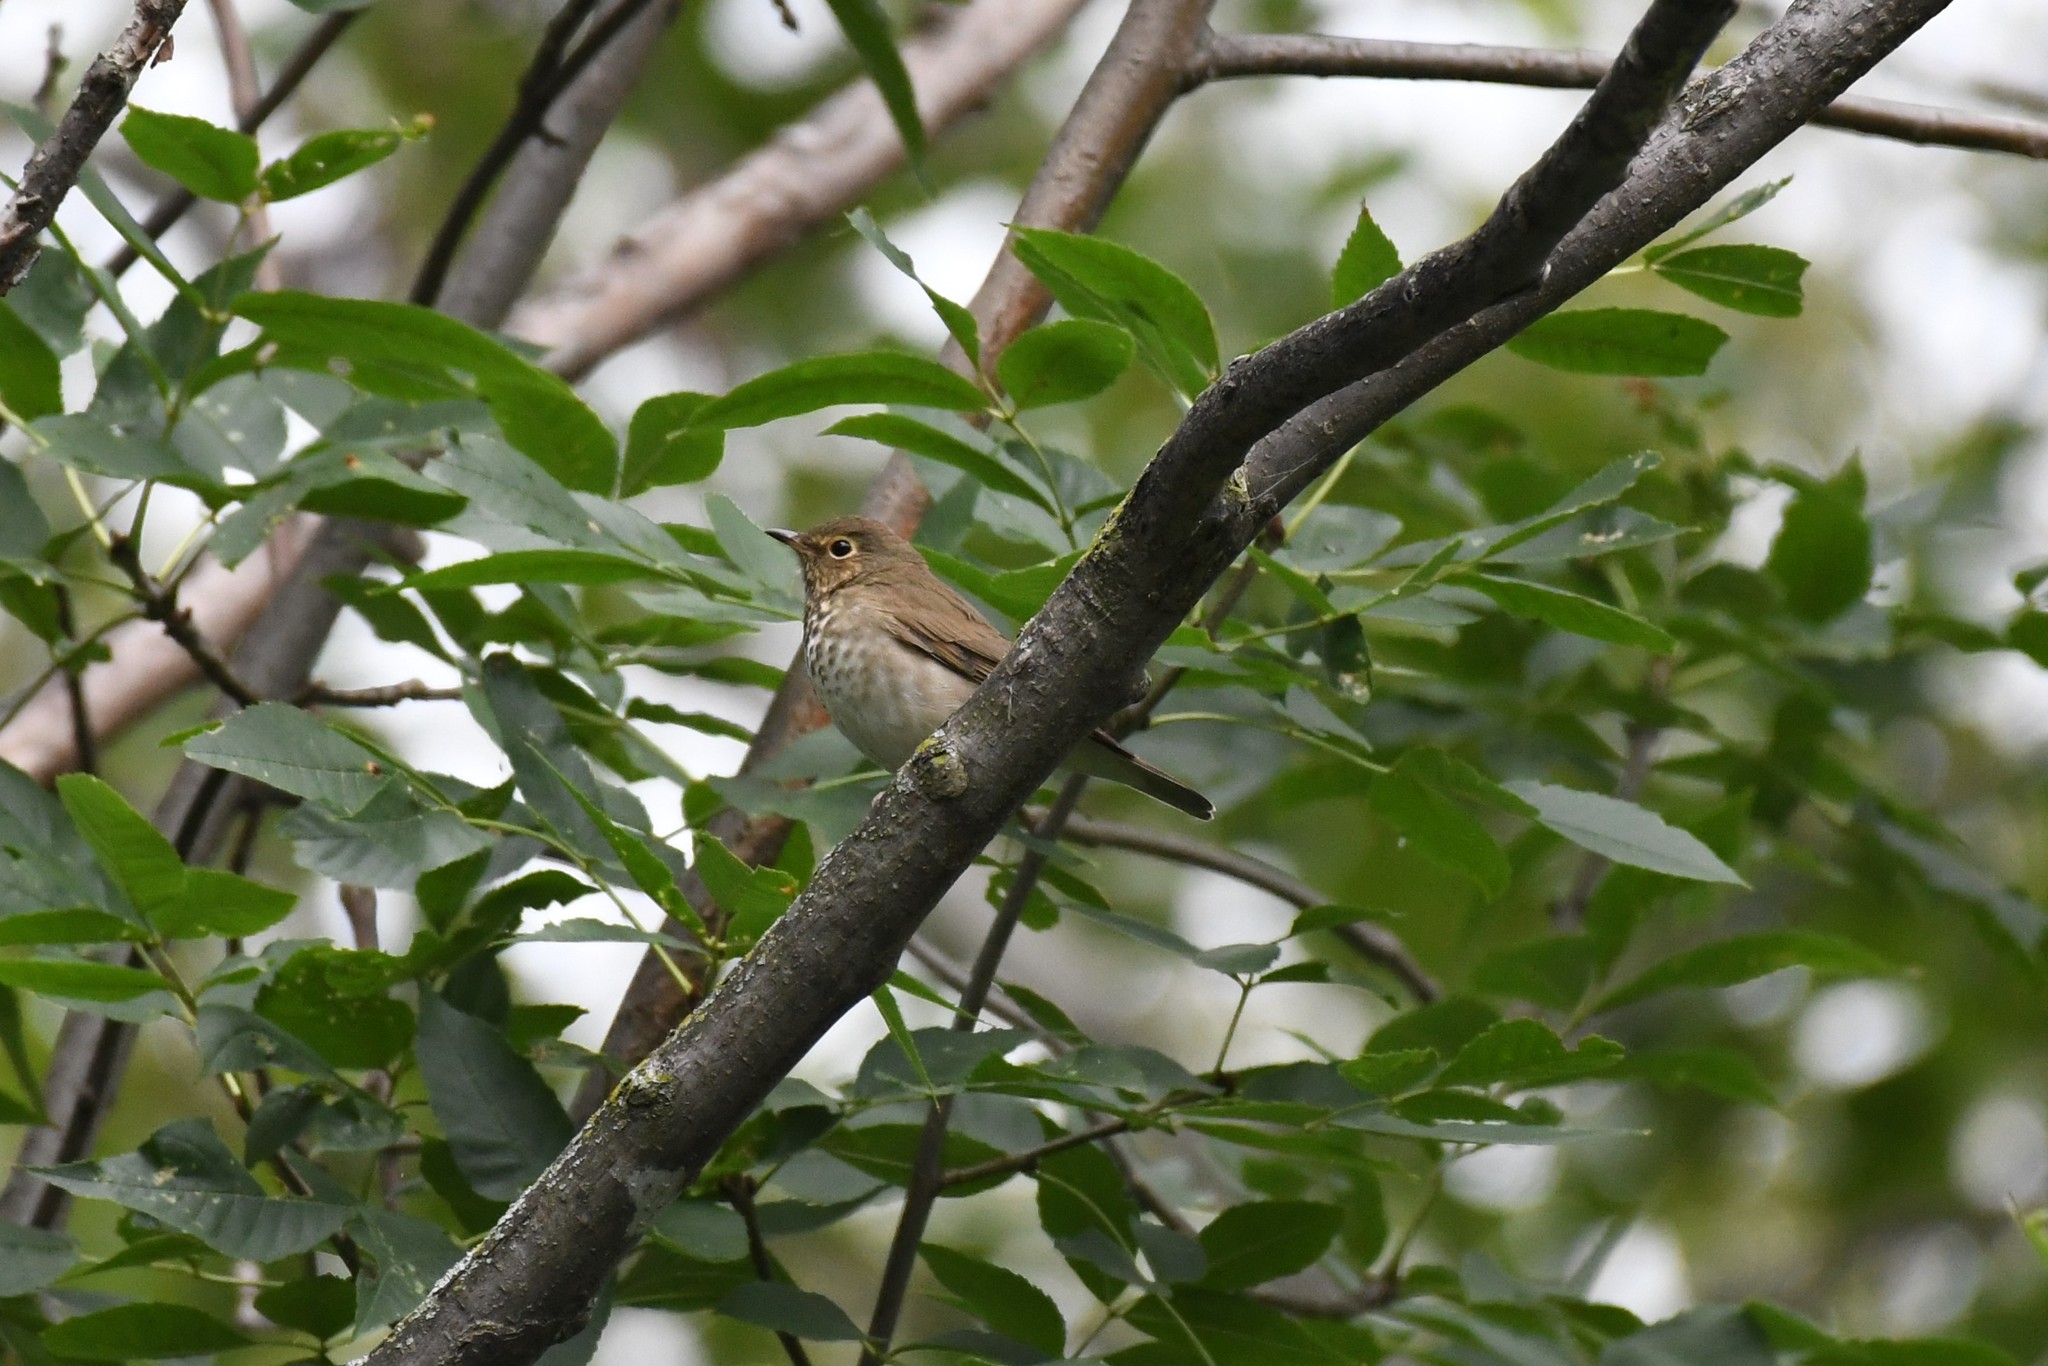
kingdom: Animalia
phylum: Chordata
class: Aves
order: Passeriformes
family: Turdidae
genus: Catharus
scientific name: Catharus ustulatus
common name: Swainson's thrush
